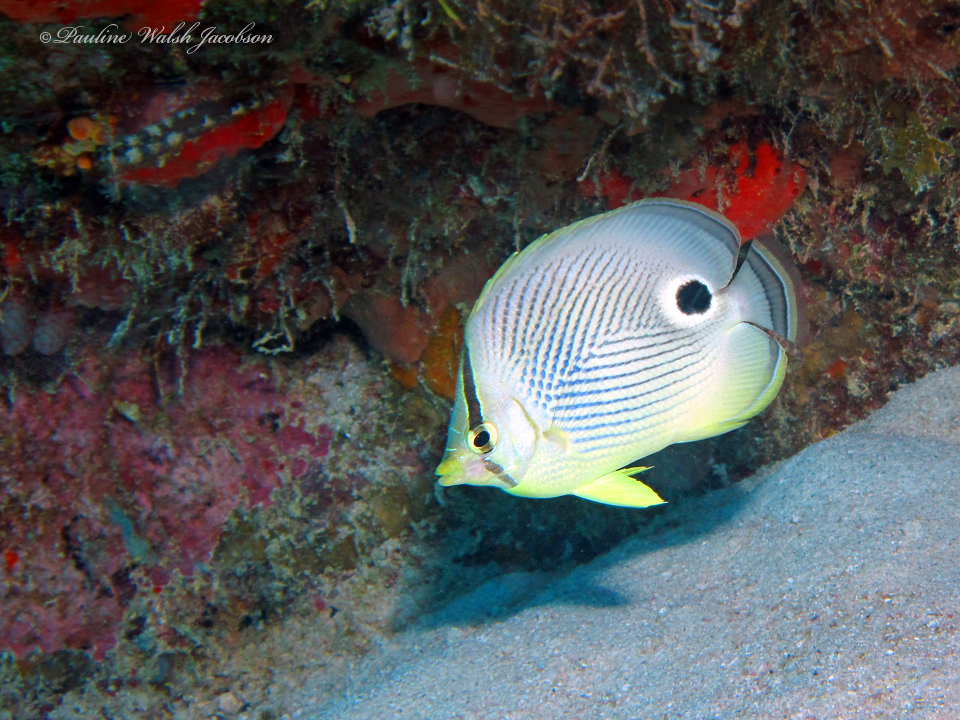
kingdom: Animalia
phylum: Chordata
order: Perciformes
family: Chaetodontidae
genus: Chaetodon
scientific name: Chaetodon capistratus
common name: Kete
